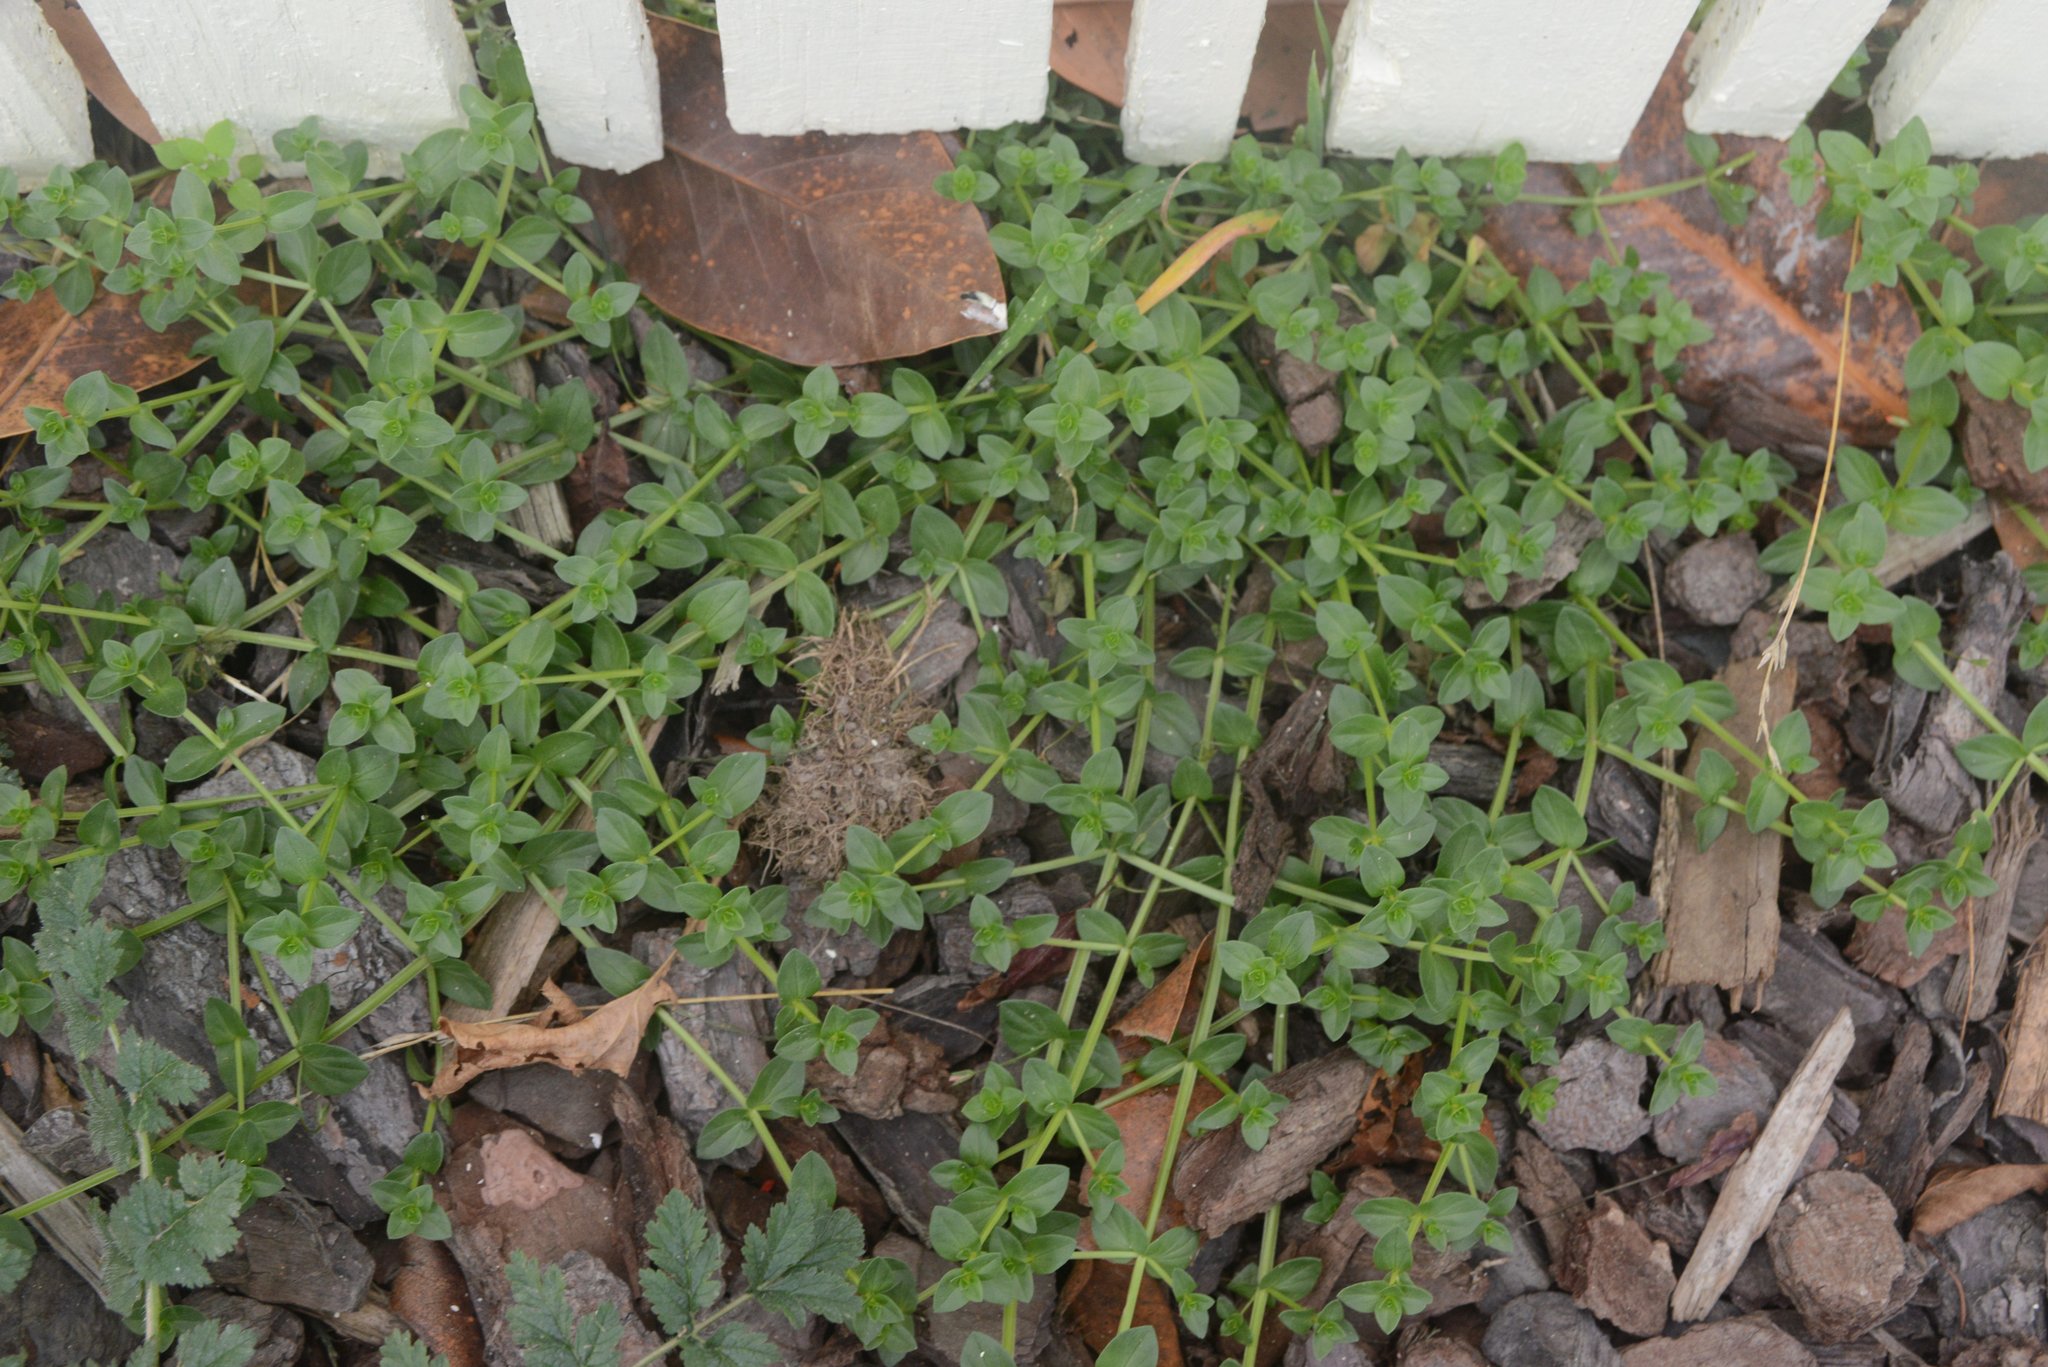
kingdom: Plantae
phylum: Tracheophyta
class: Magnoliopsida
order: Ericales
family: Primulaceae
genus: Lysimachia
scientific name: Lysimachia arvensis
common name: Scarlet pimpernel
